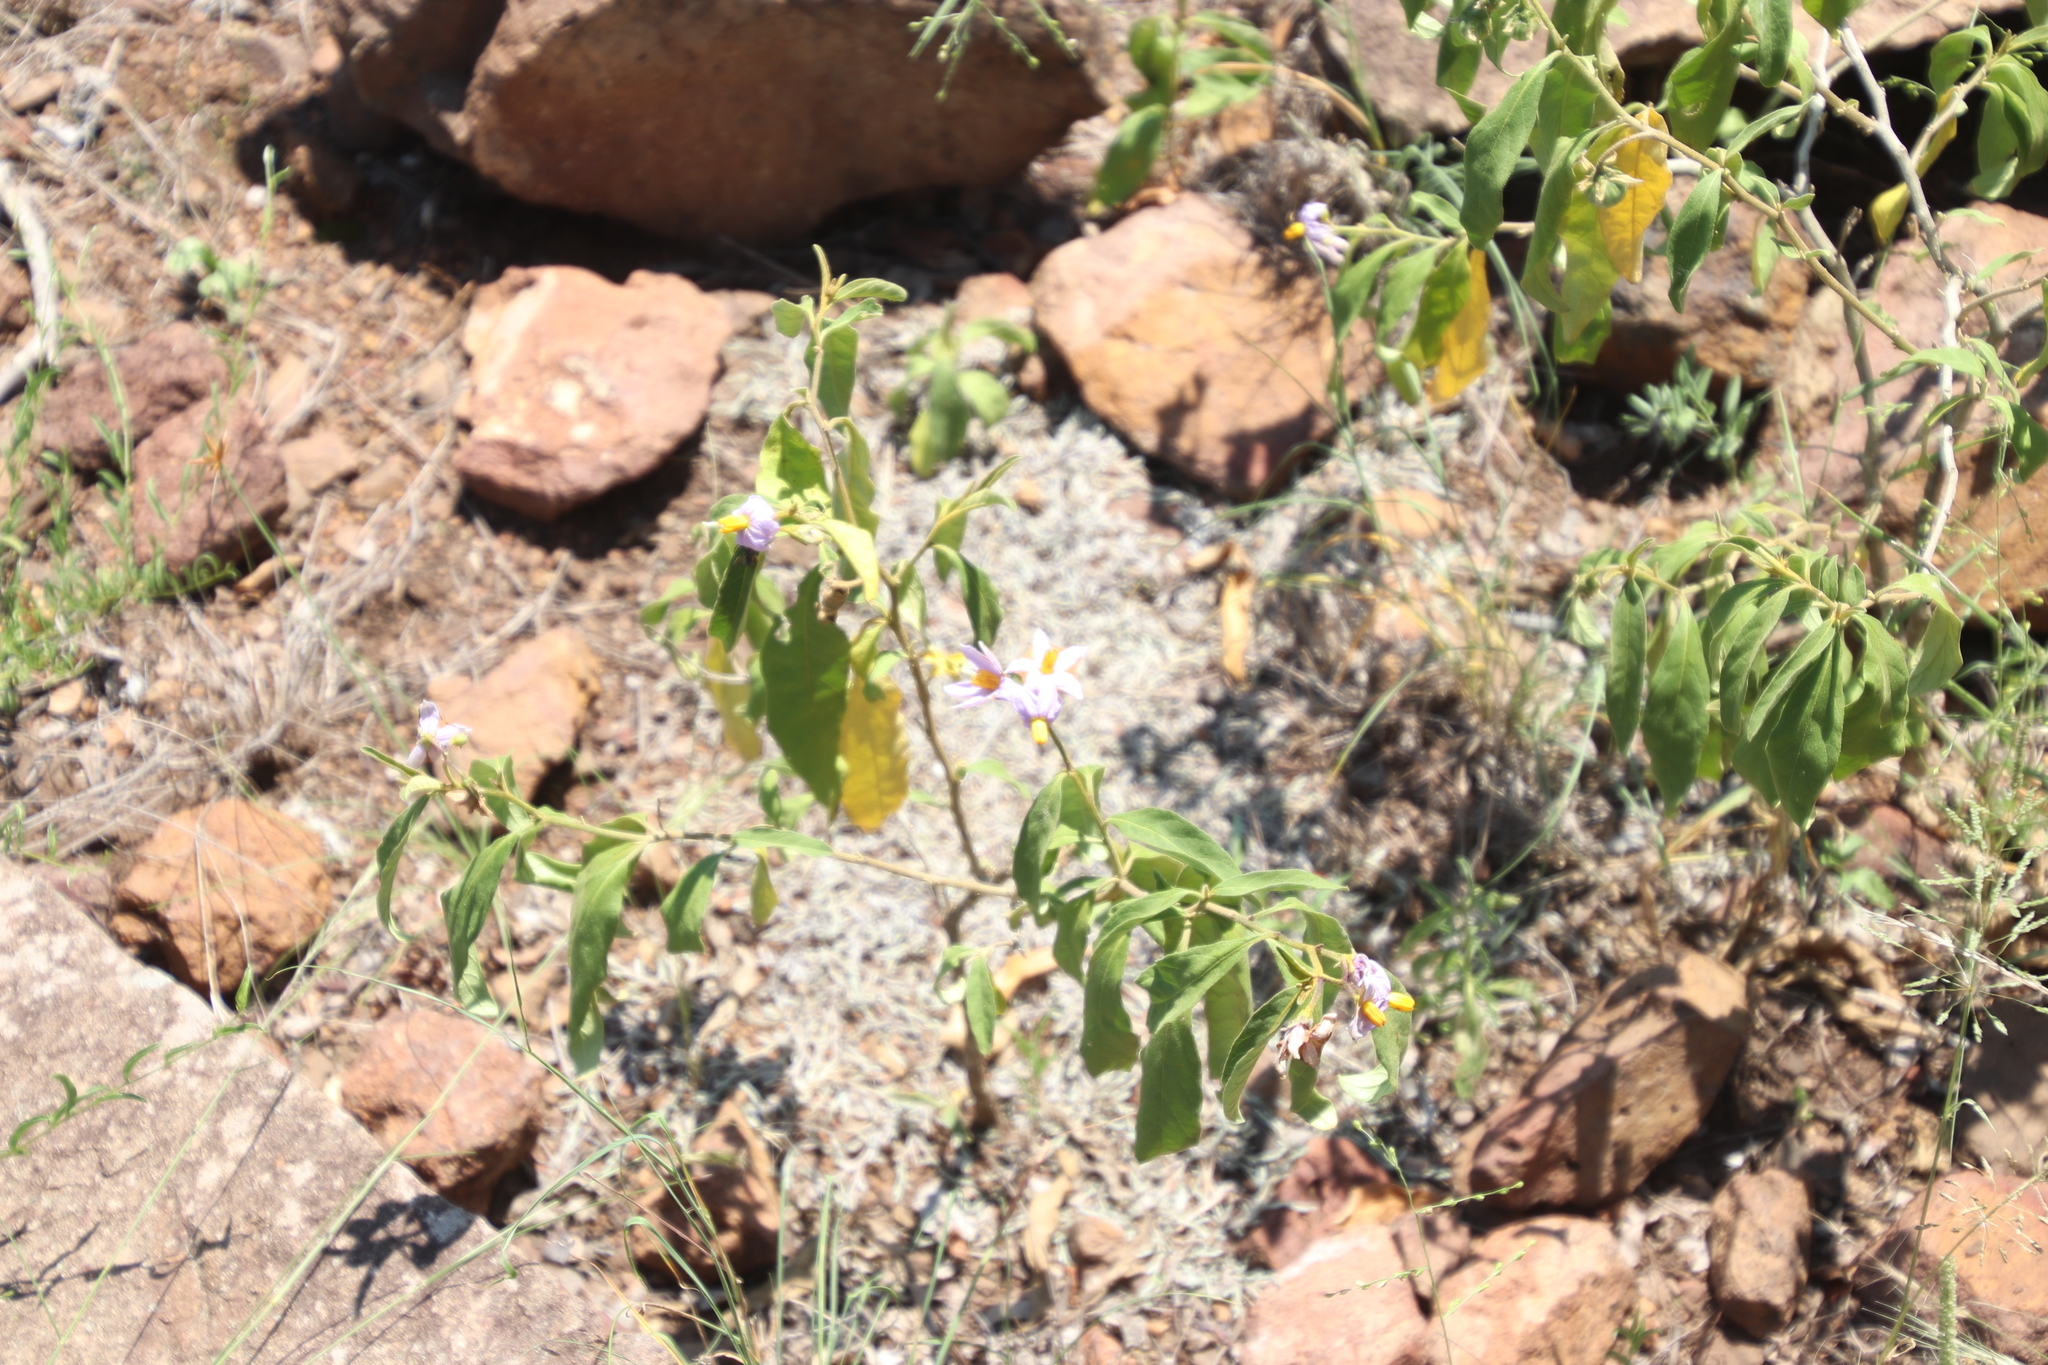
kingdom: Plantae
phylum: Tracheophyta
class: Magnoliopsida
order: Solanales
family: Solanaceae
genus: Solanum
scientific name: Solanum campylacanthum
